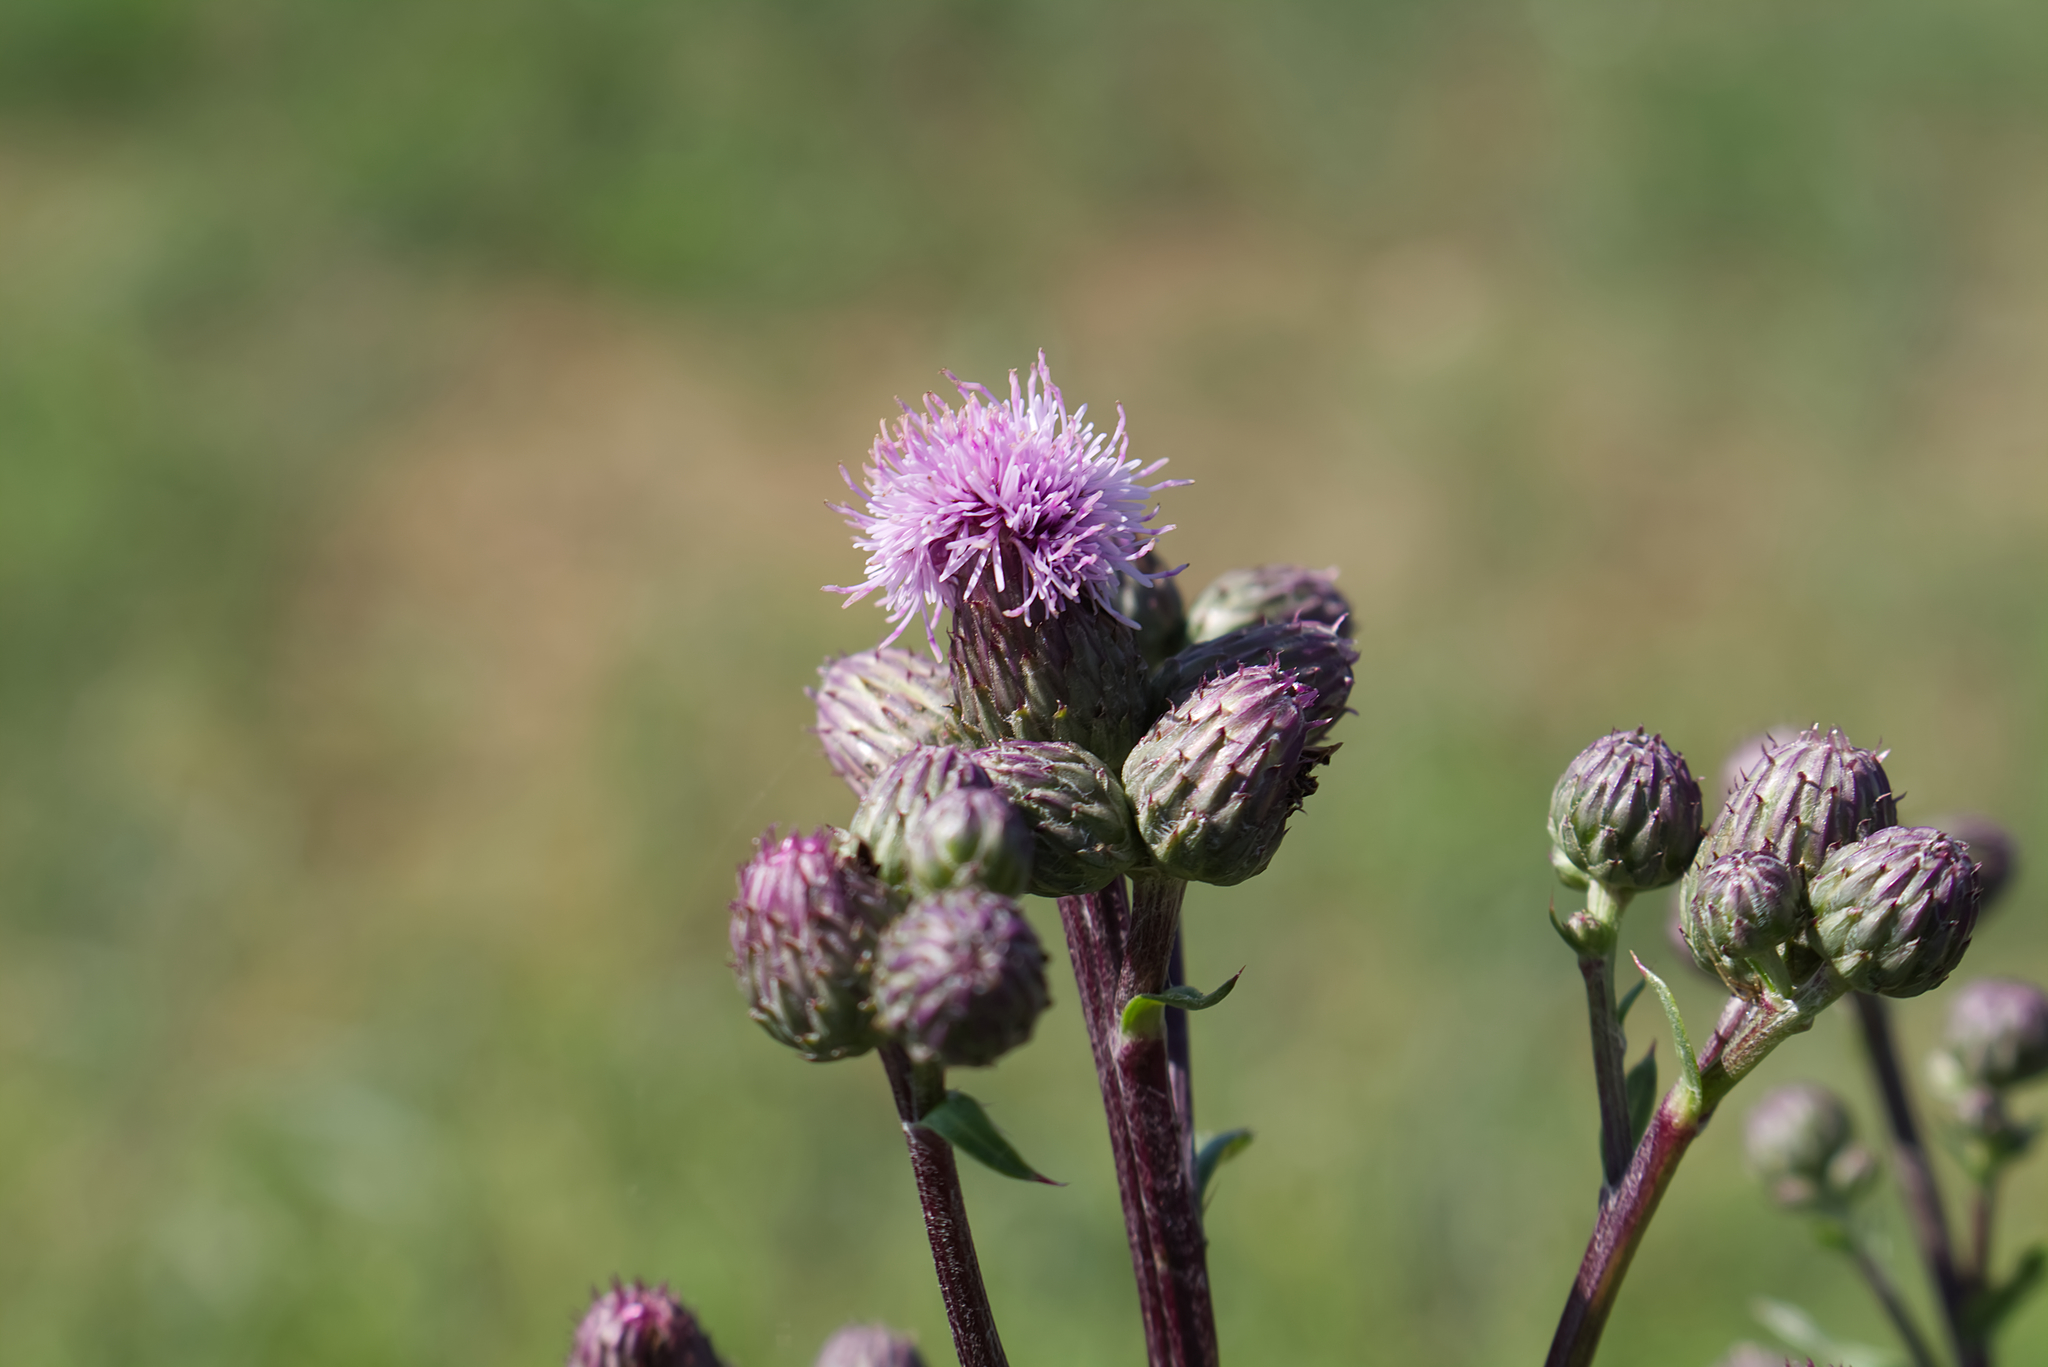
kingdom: Plantae
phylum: Tracheophyta
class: Magnoliopsida
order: Asterales
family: Asteraceae
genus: Cirsium
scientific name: Cirsium arvense
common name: Creeping thistle
